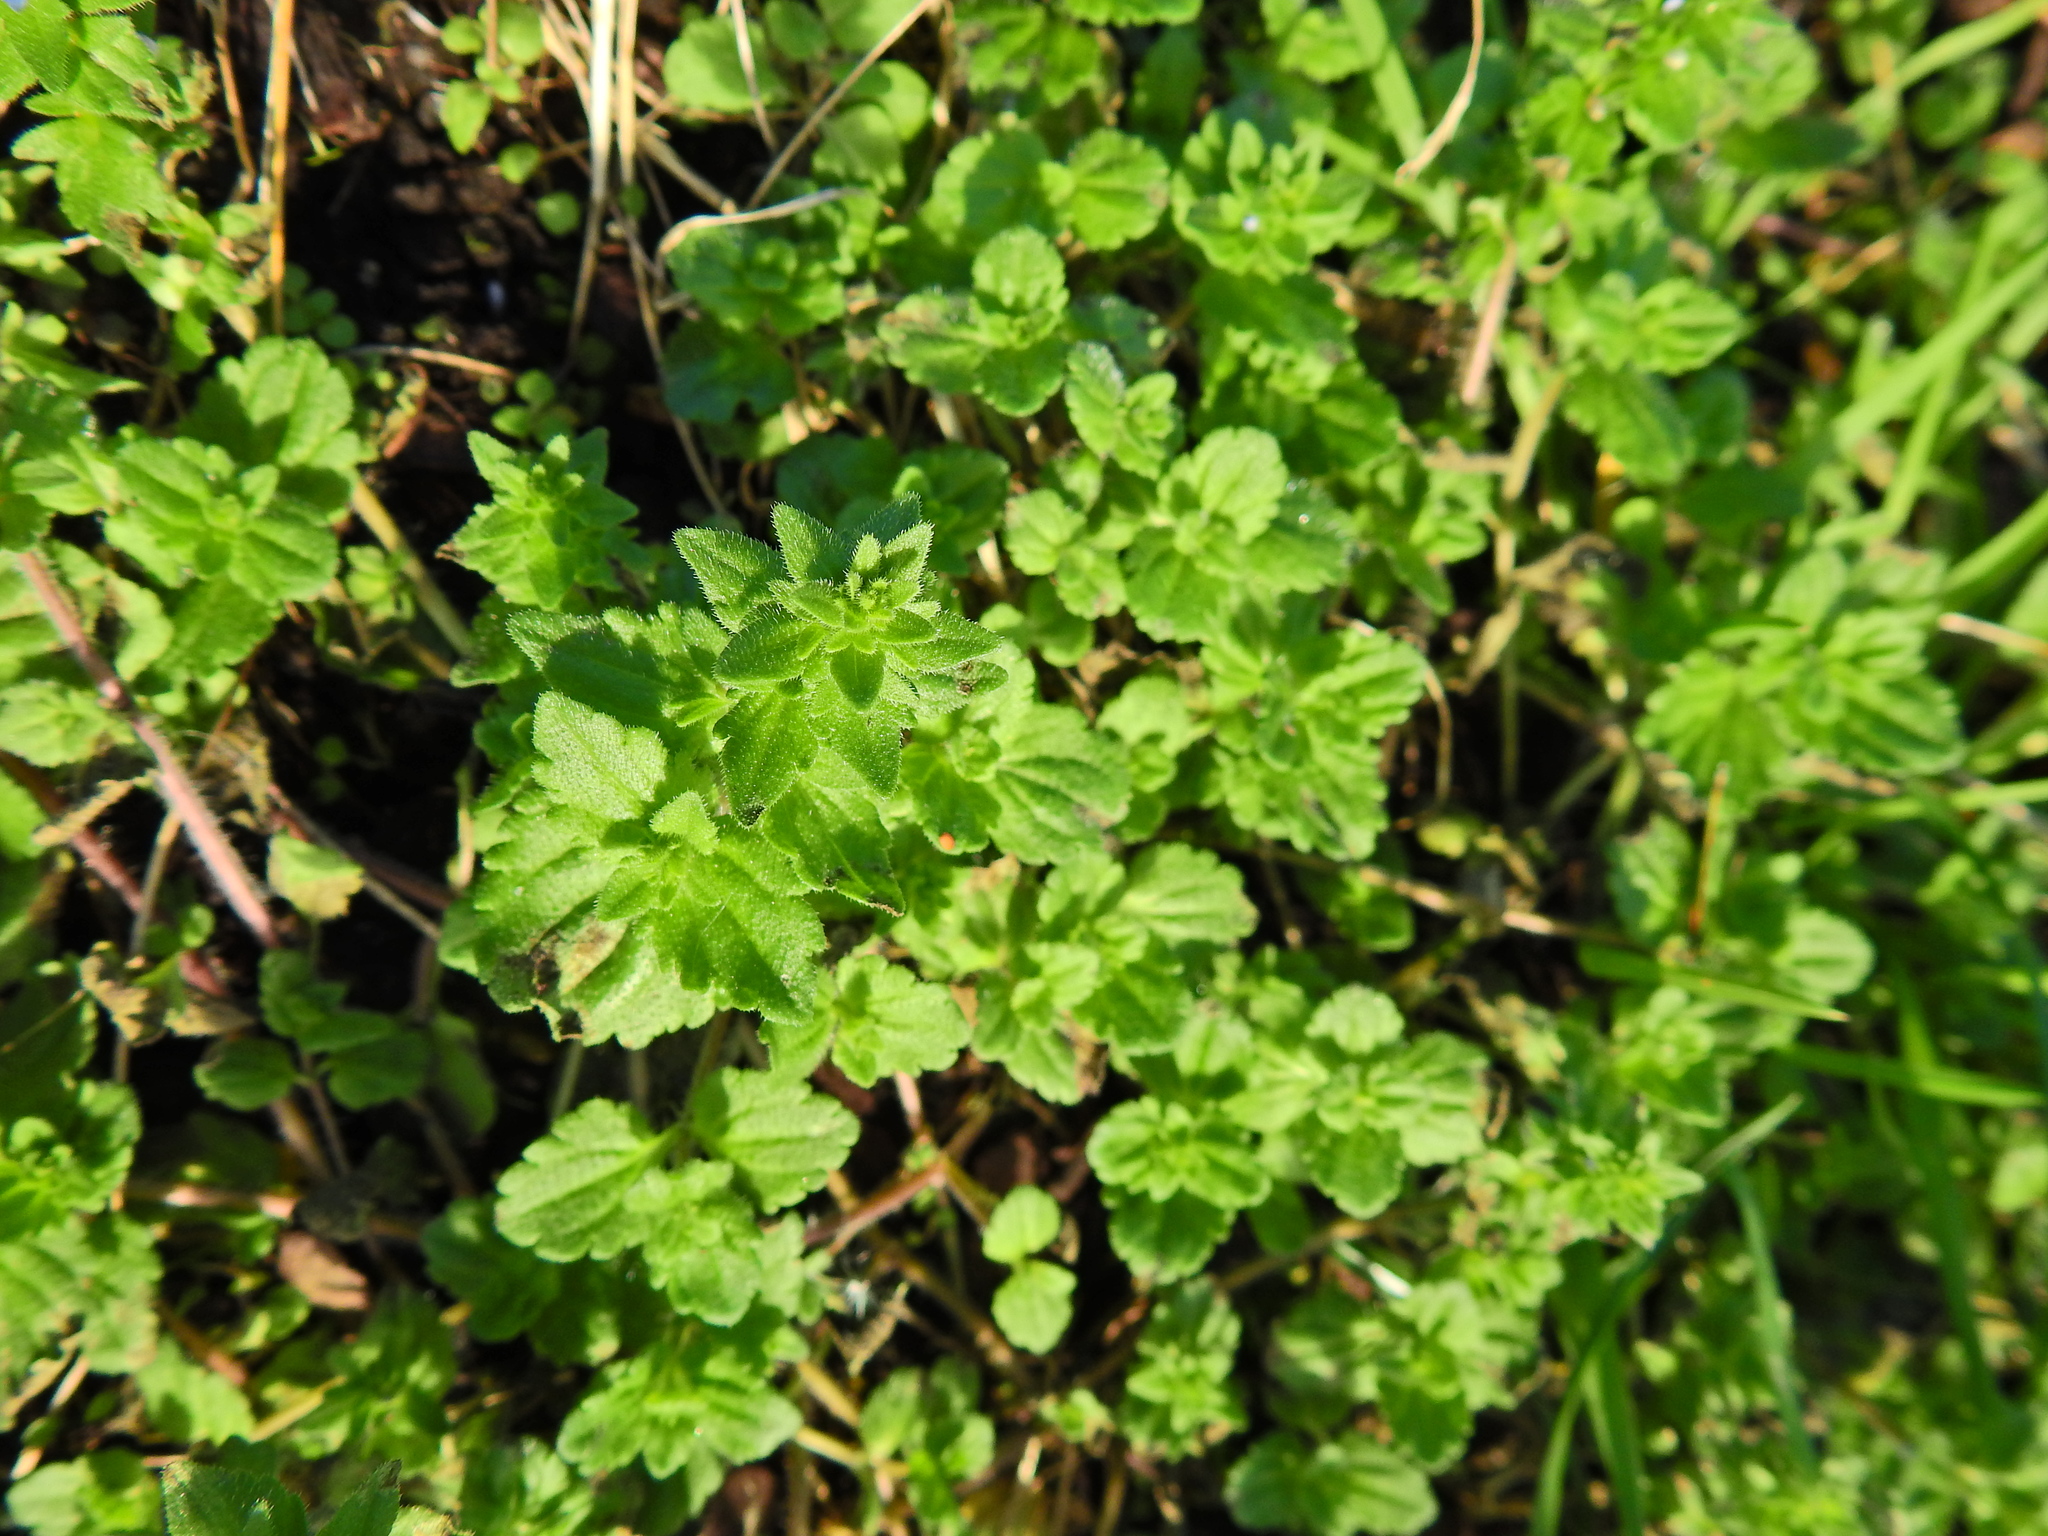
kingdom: Plantae
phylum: Tracheophyta
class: Magnoliopsida
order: Lamiales
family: Plantaginaceae
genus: Veronica
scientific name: Veronica arvensis
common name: Corn speedwell
